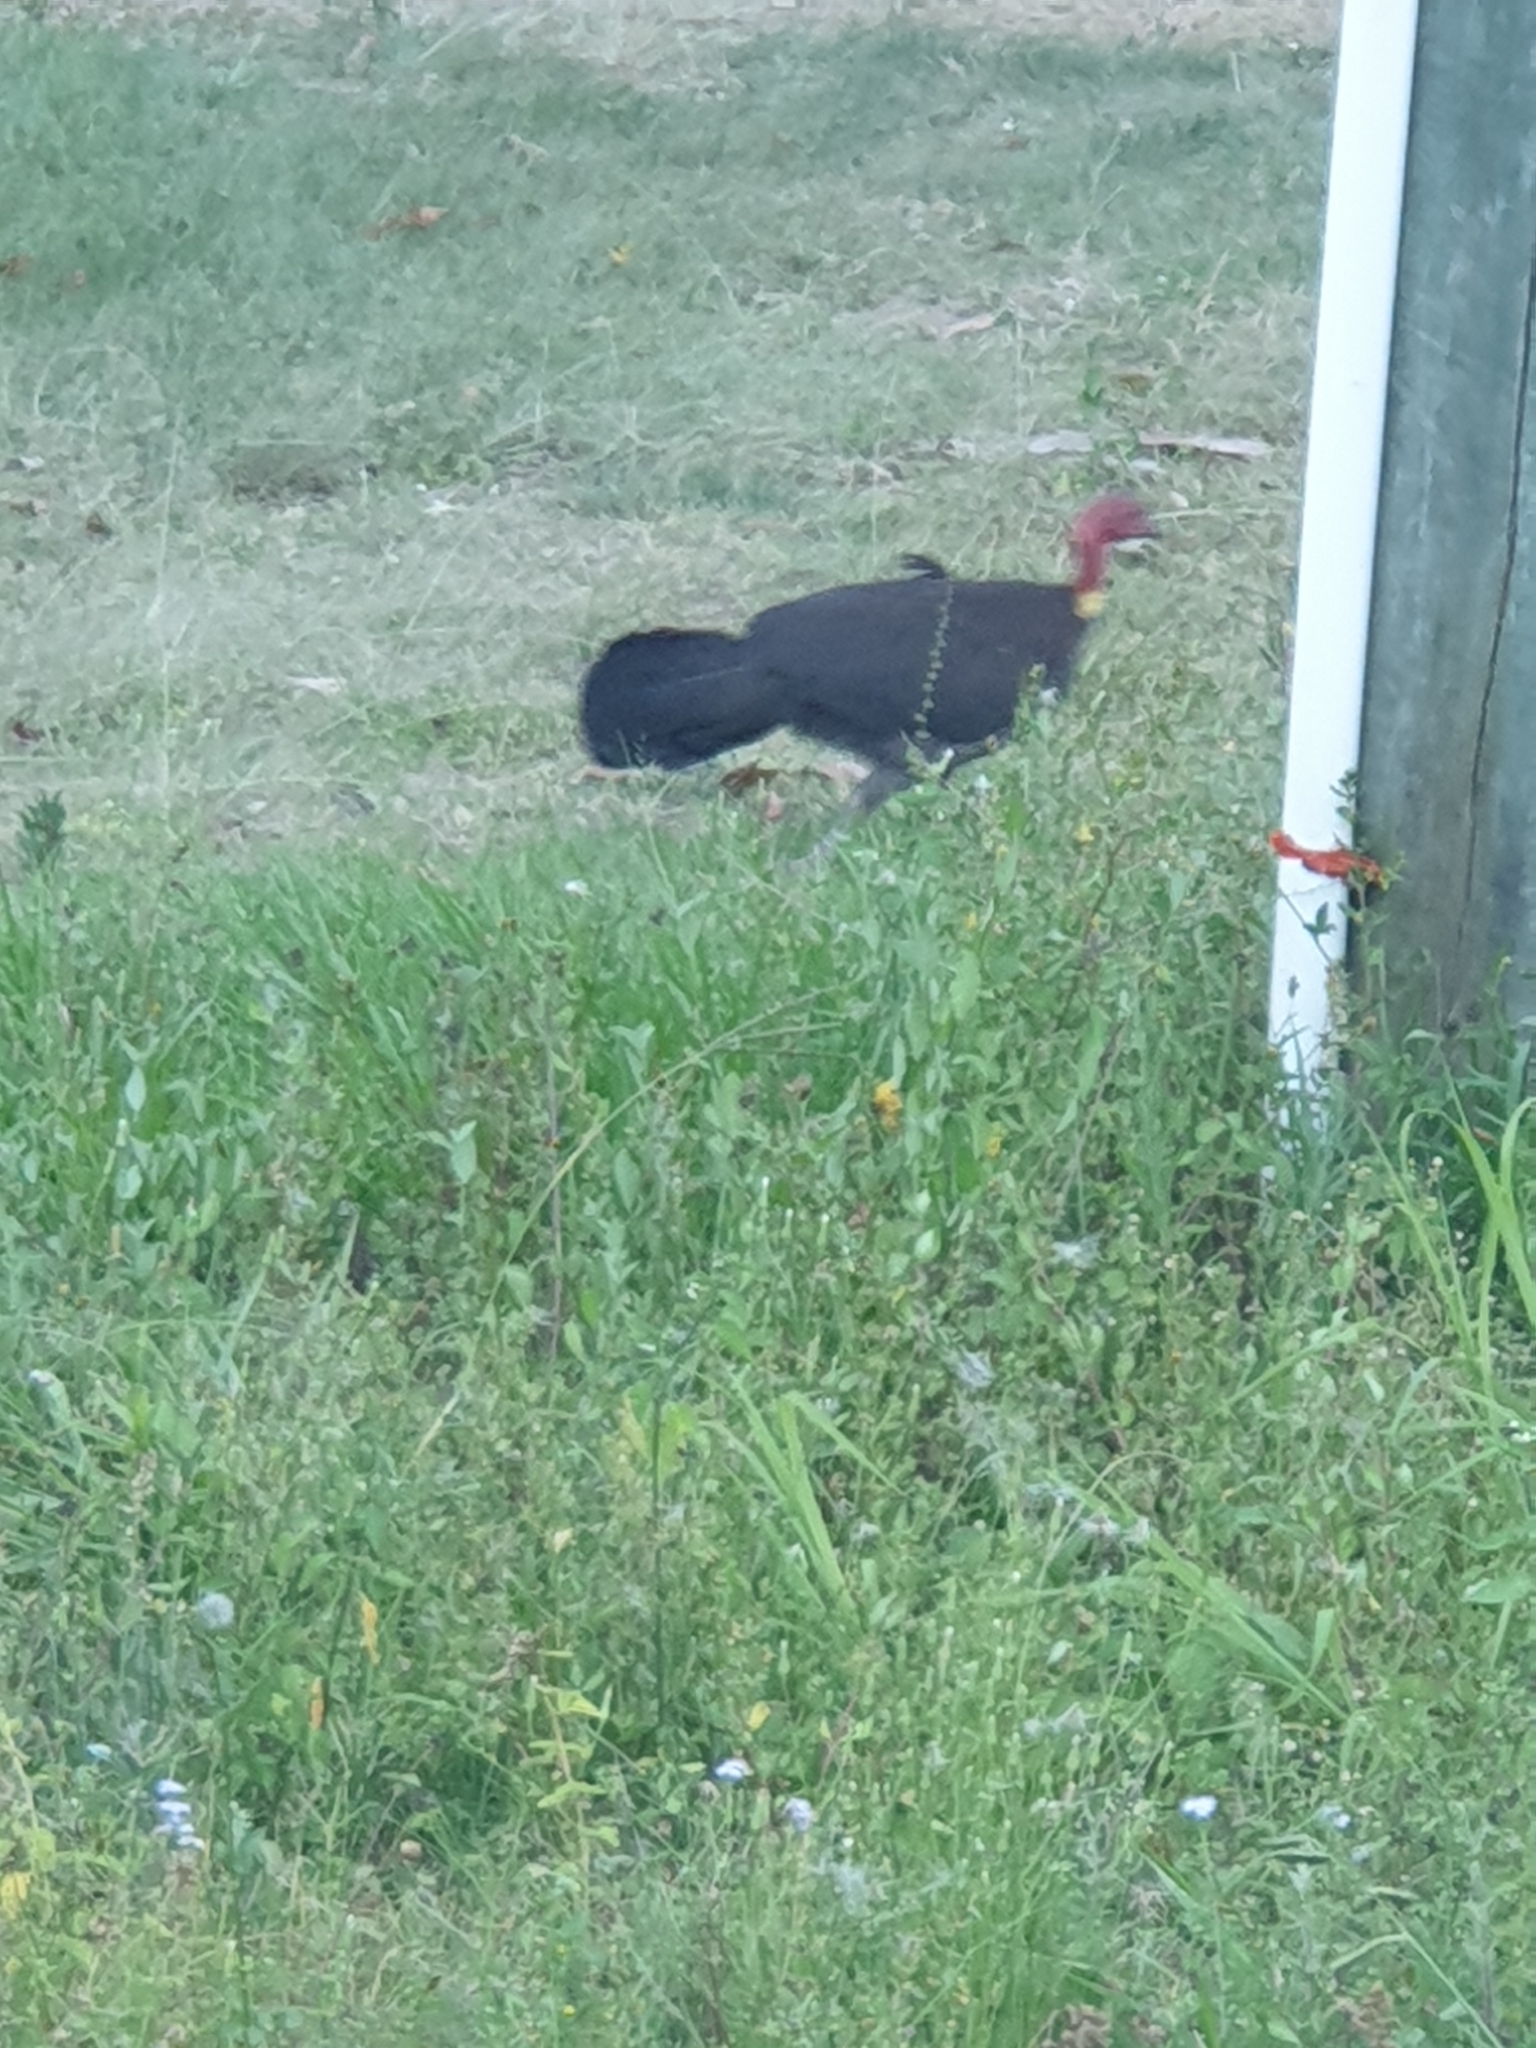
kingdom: Animalia
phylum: Chordata
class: Aves
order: Galliformes
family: Megapodiidae
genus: Alectura
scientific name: Alectura lathami
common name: Australian brushturkey
